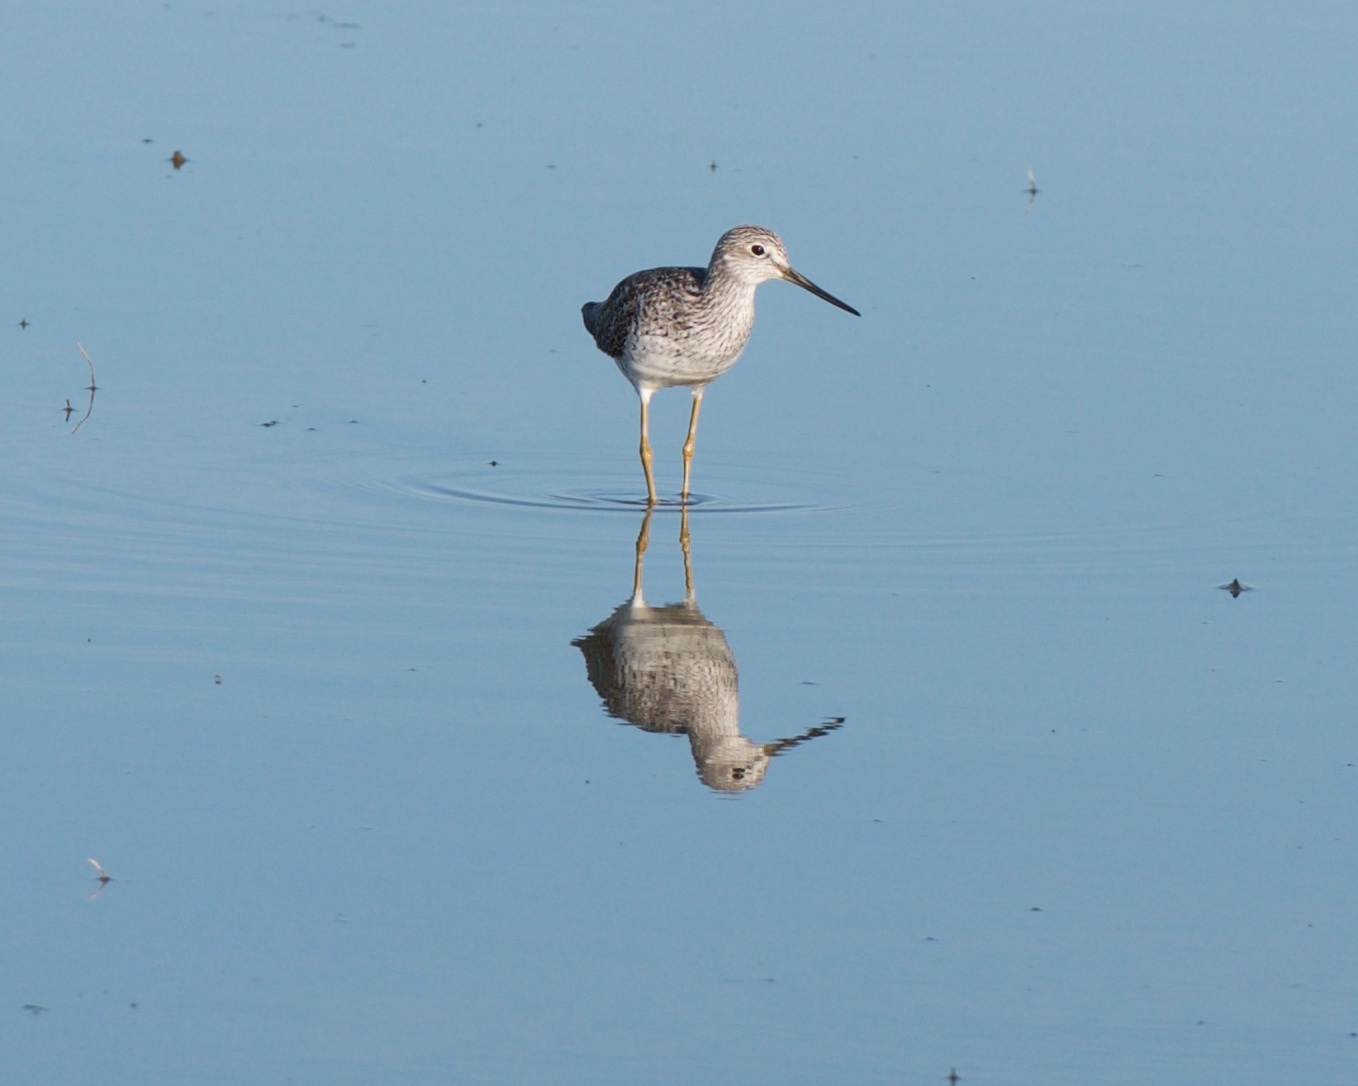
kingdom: Animalia
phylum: Chordata
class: Aves
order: Charadriiformes
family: Scolopacidae
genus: Tringa
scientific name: Tringa melanoleuca
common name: Greater yellowlegs
